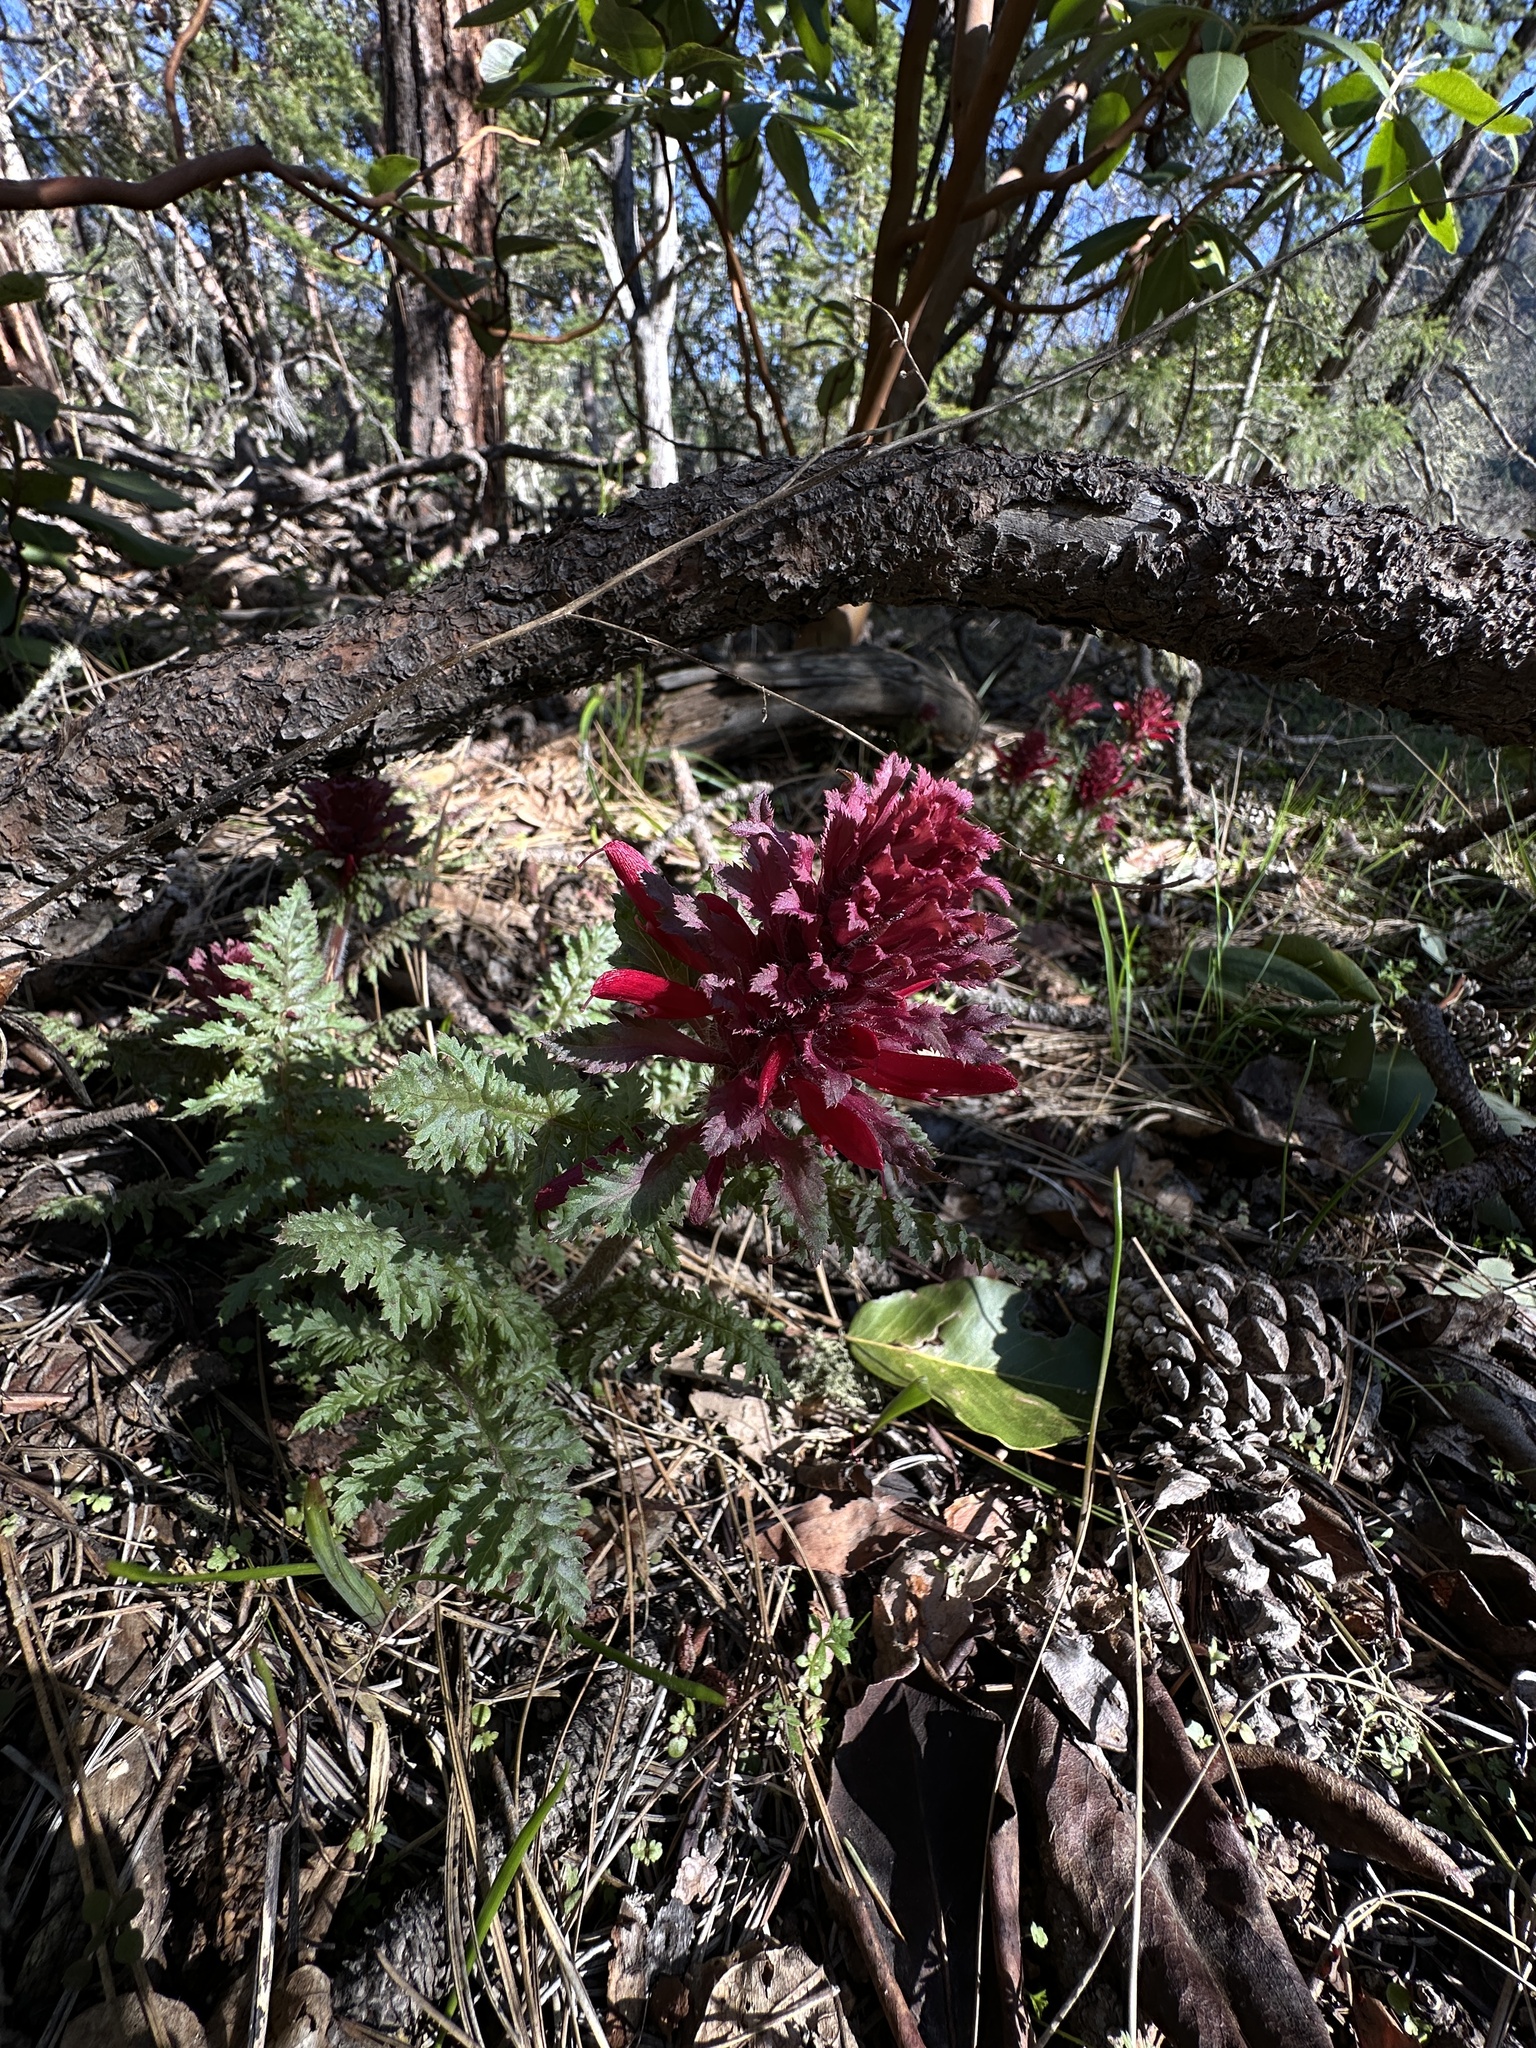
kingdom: Plantae
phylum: Tracheophyta
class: Magnoliopsida
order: Lamiales
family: Orobanchaceae
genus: Pedicularis
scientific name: Pedicularis densiflora
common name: Indian warrior
